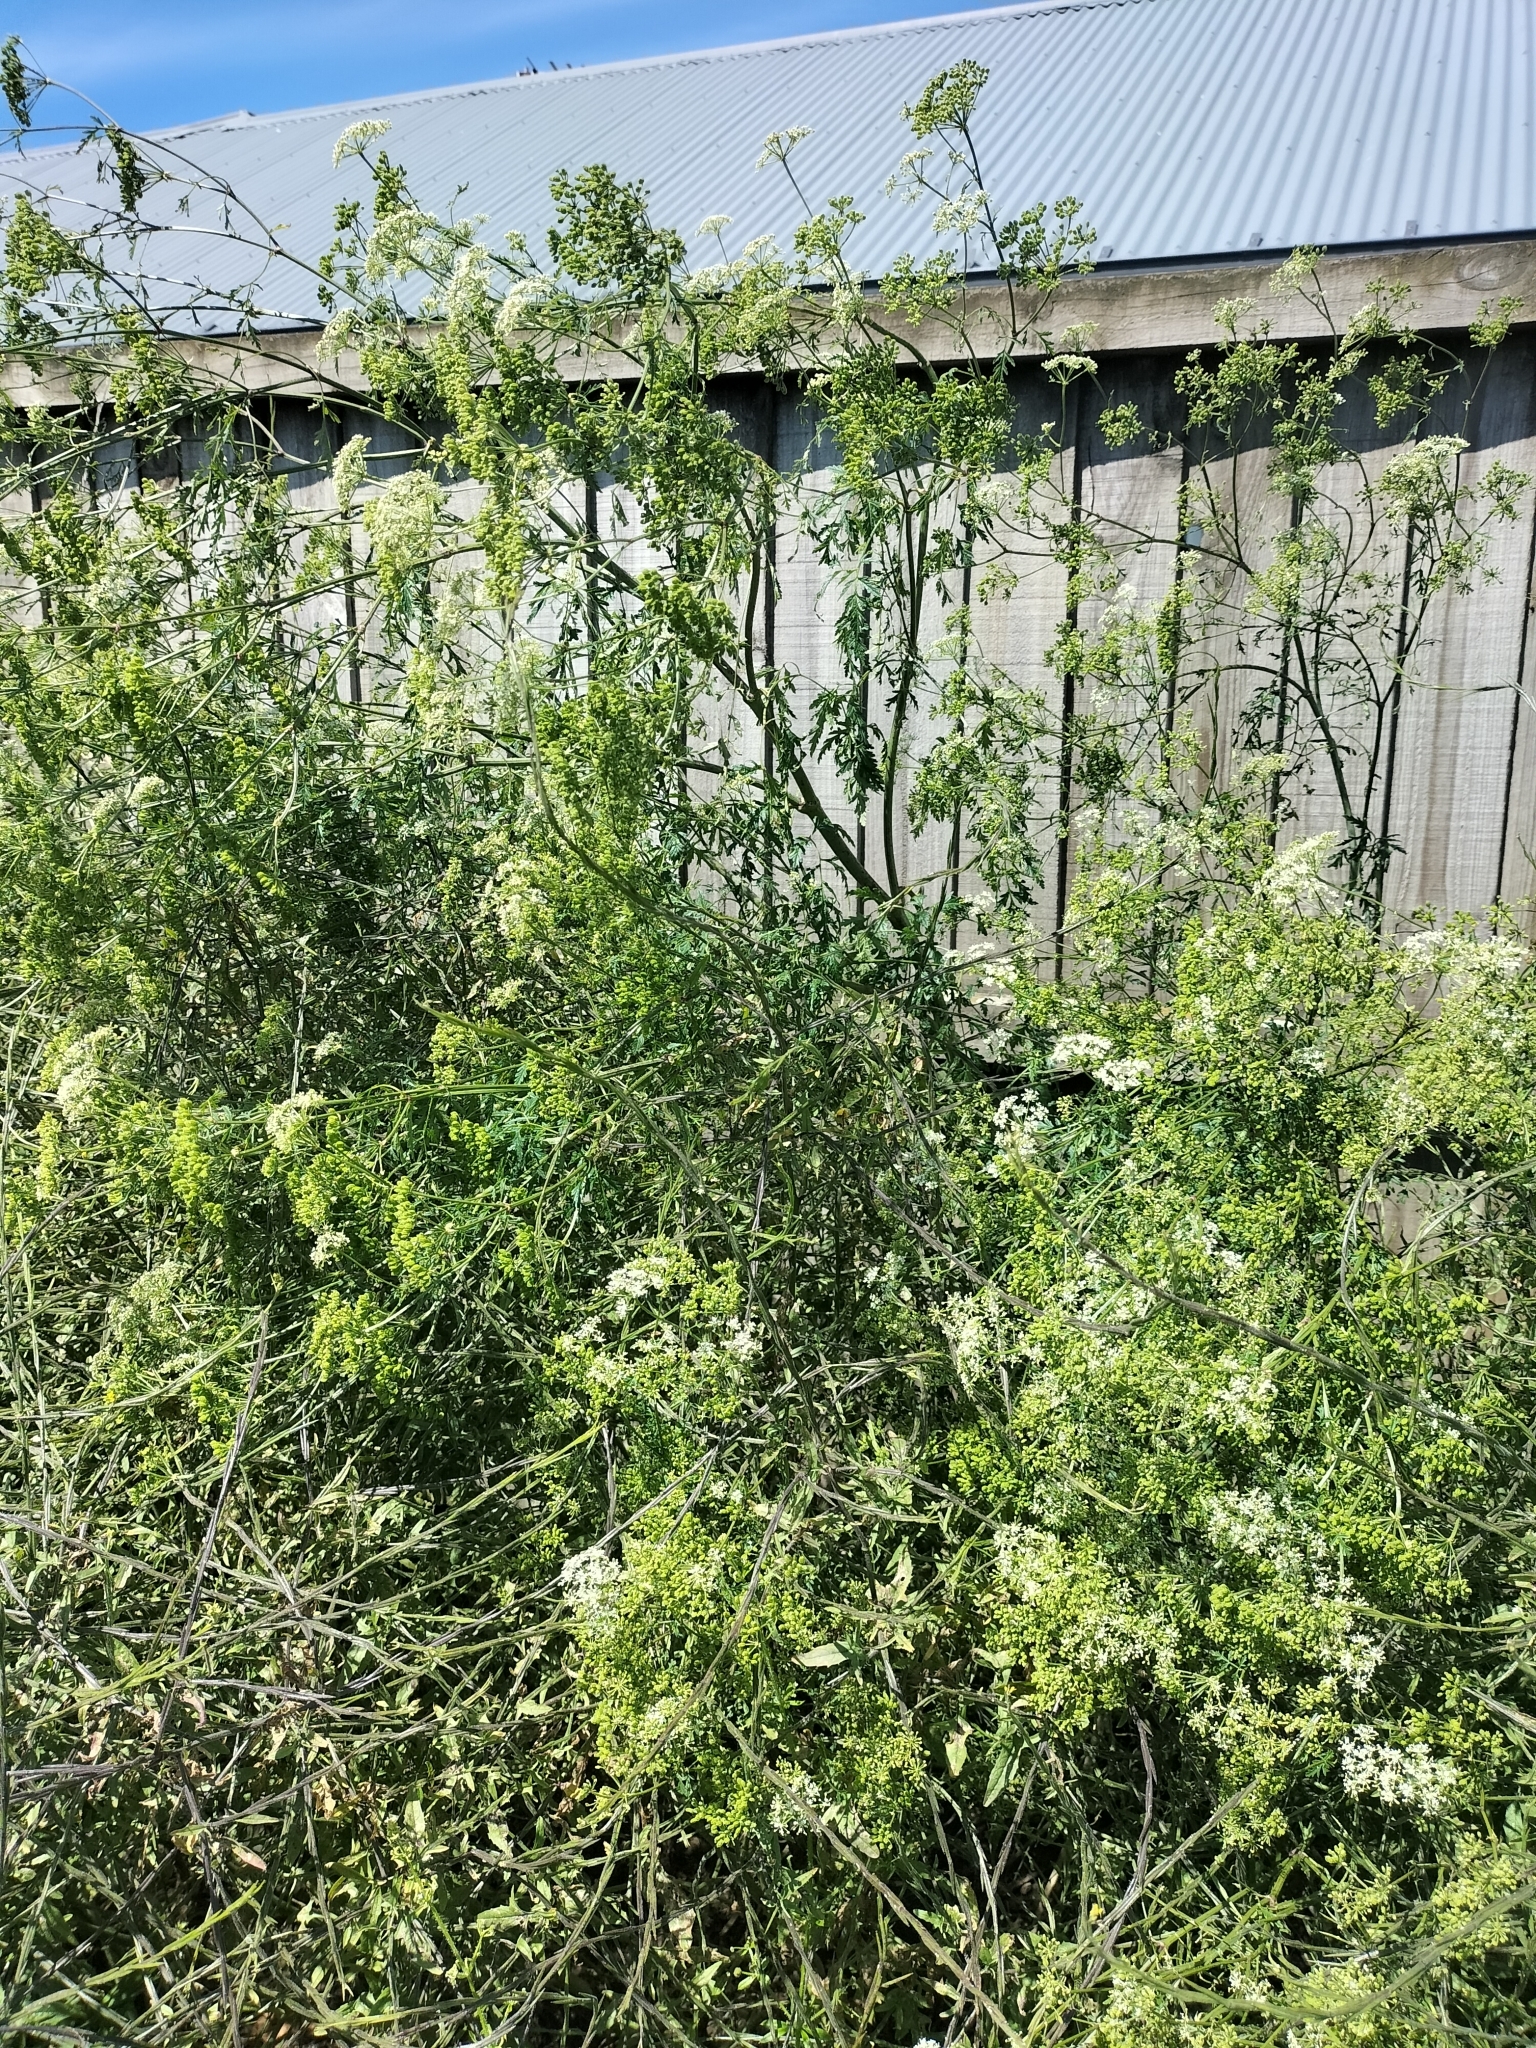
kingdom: Plantae
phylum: Tracheophyta
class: Magnoliopsida
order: Apiales
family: Apiaceae
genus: Conium
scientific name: Conium maculatum
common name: Hemlock
